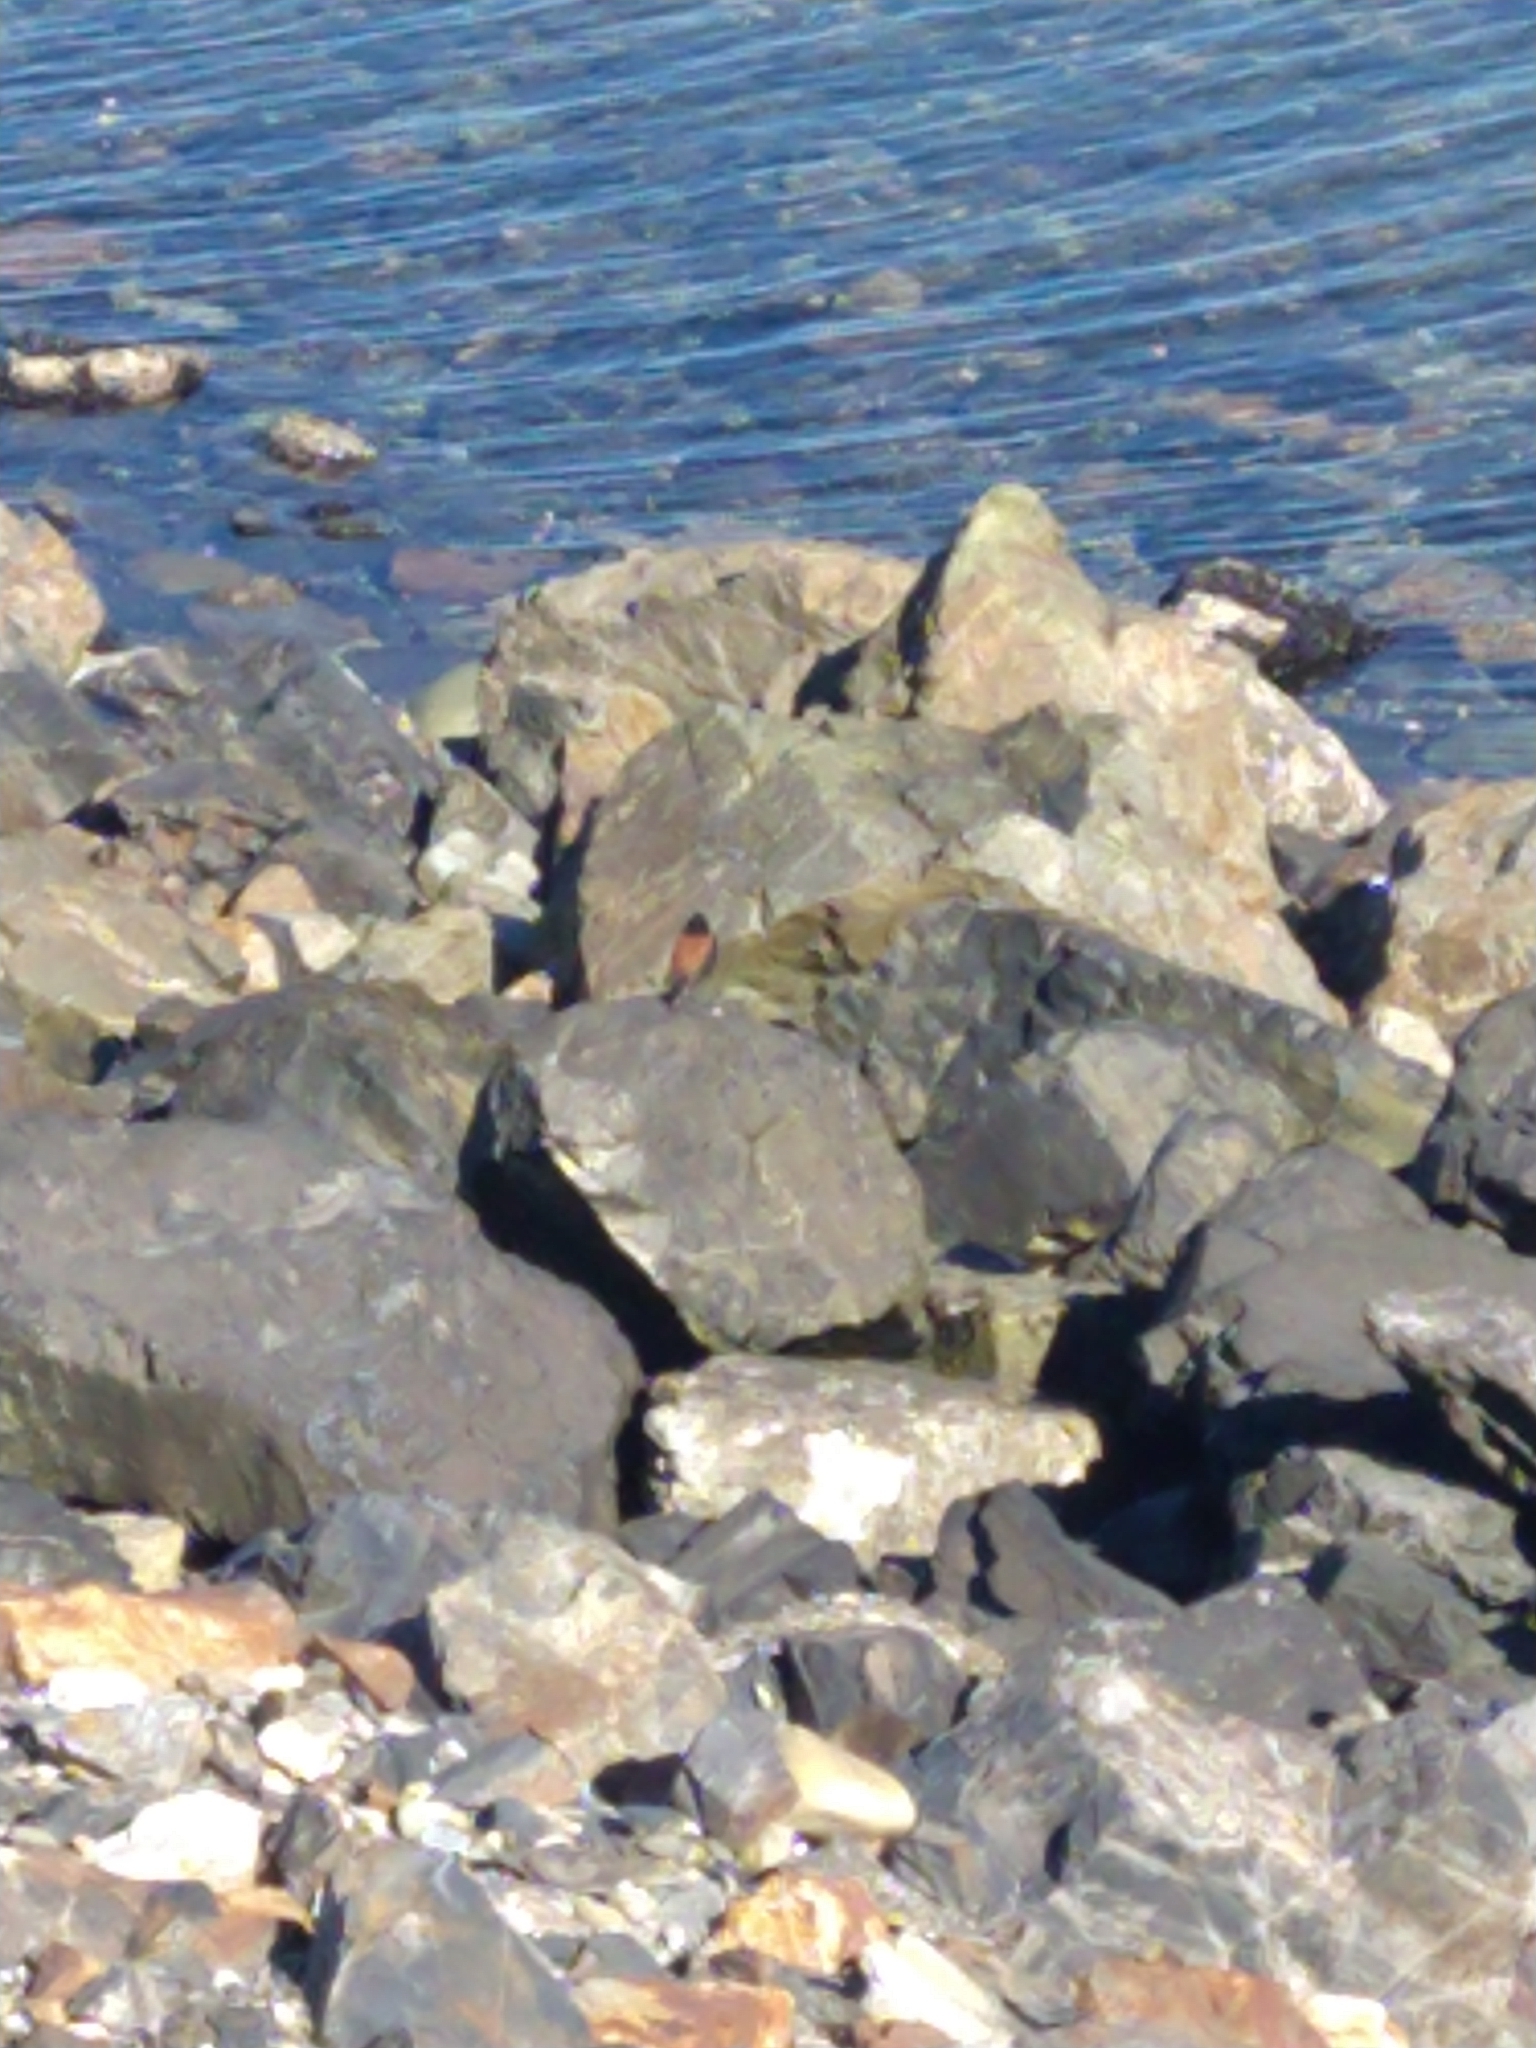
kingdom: Animalia
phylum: Chordata
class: Aves
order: Passeriformes
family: Tyrannidae
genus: Lessonia
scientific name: Lessonia rufa
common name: Austral negrito
